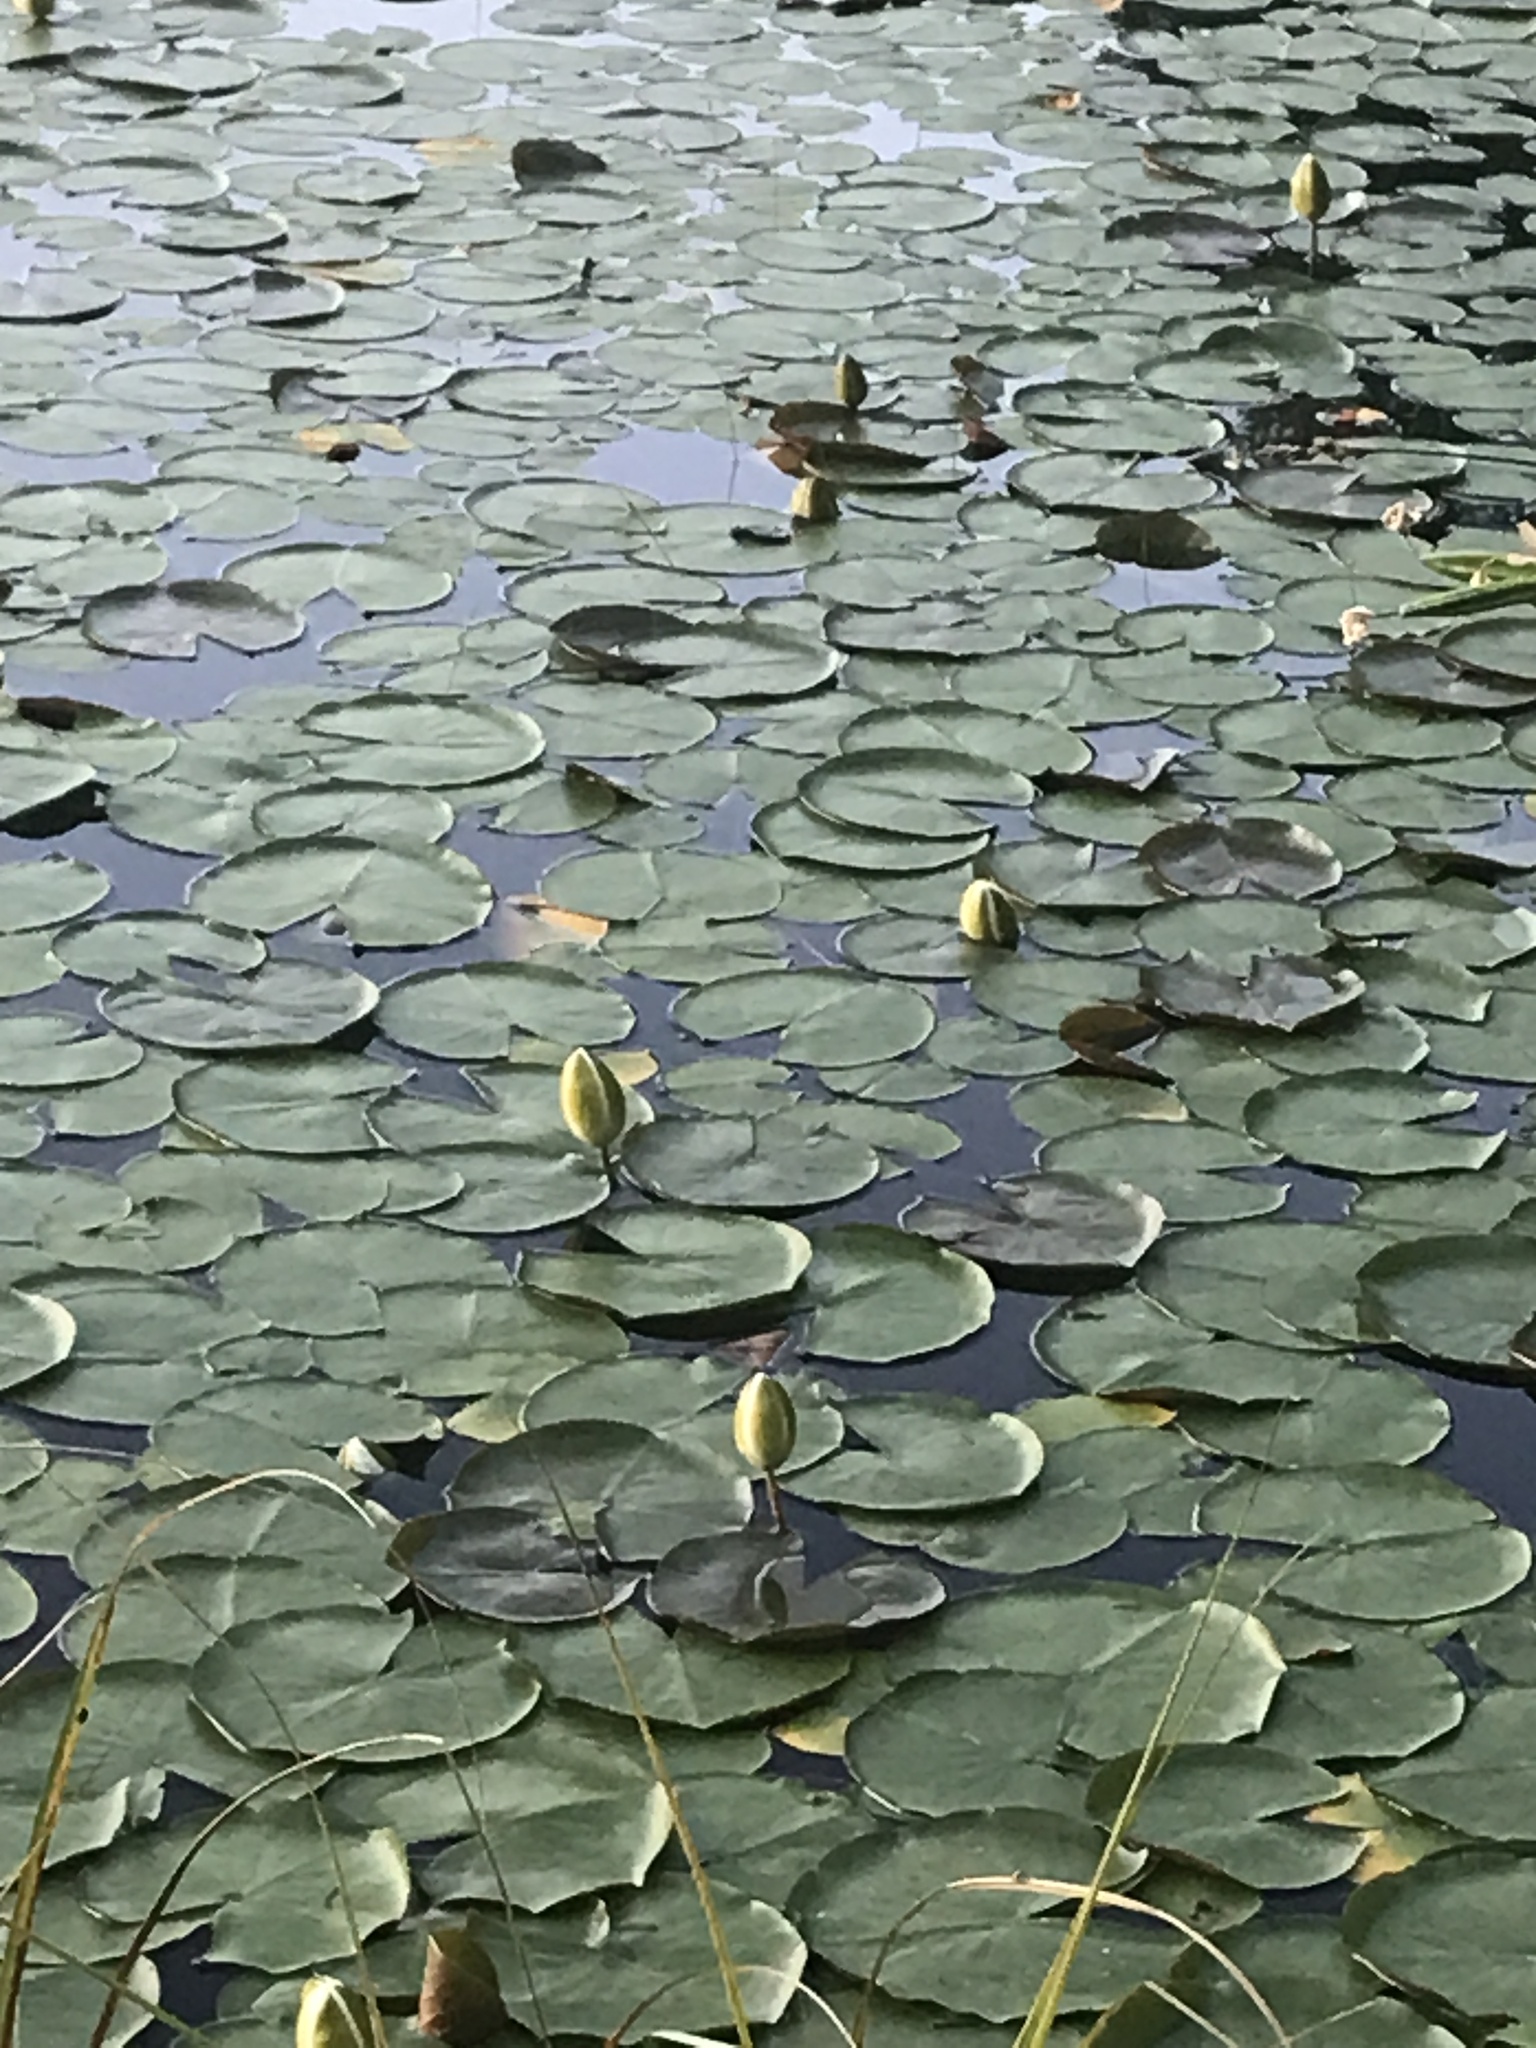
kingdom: Plantae
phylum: Tracheophyta
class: Magnoliopsida
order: Nymphaeales
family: Nymphaeaceae
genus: Nymphaea
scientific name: Nymphaea odorata
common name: Fragrant water-lily
